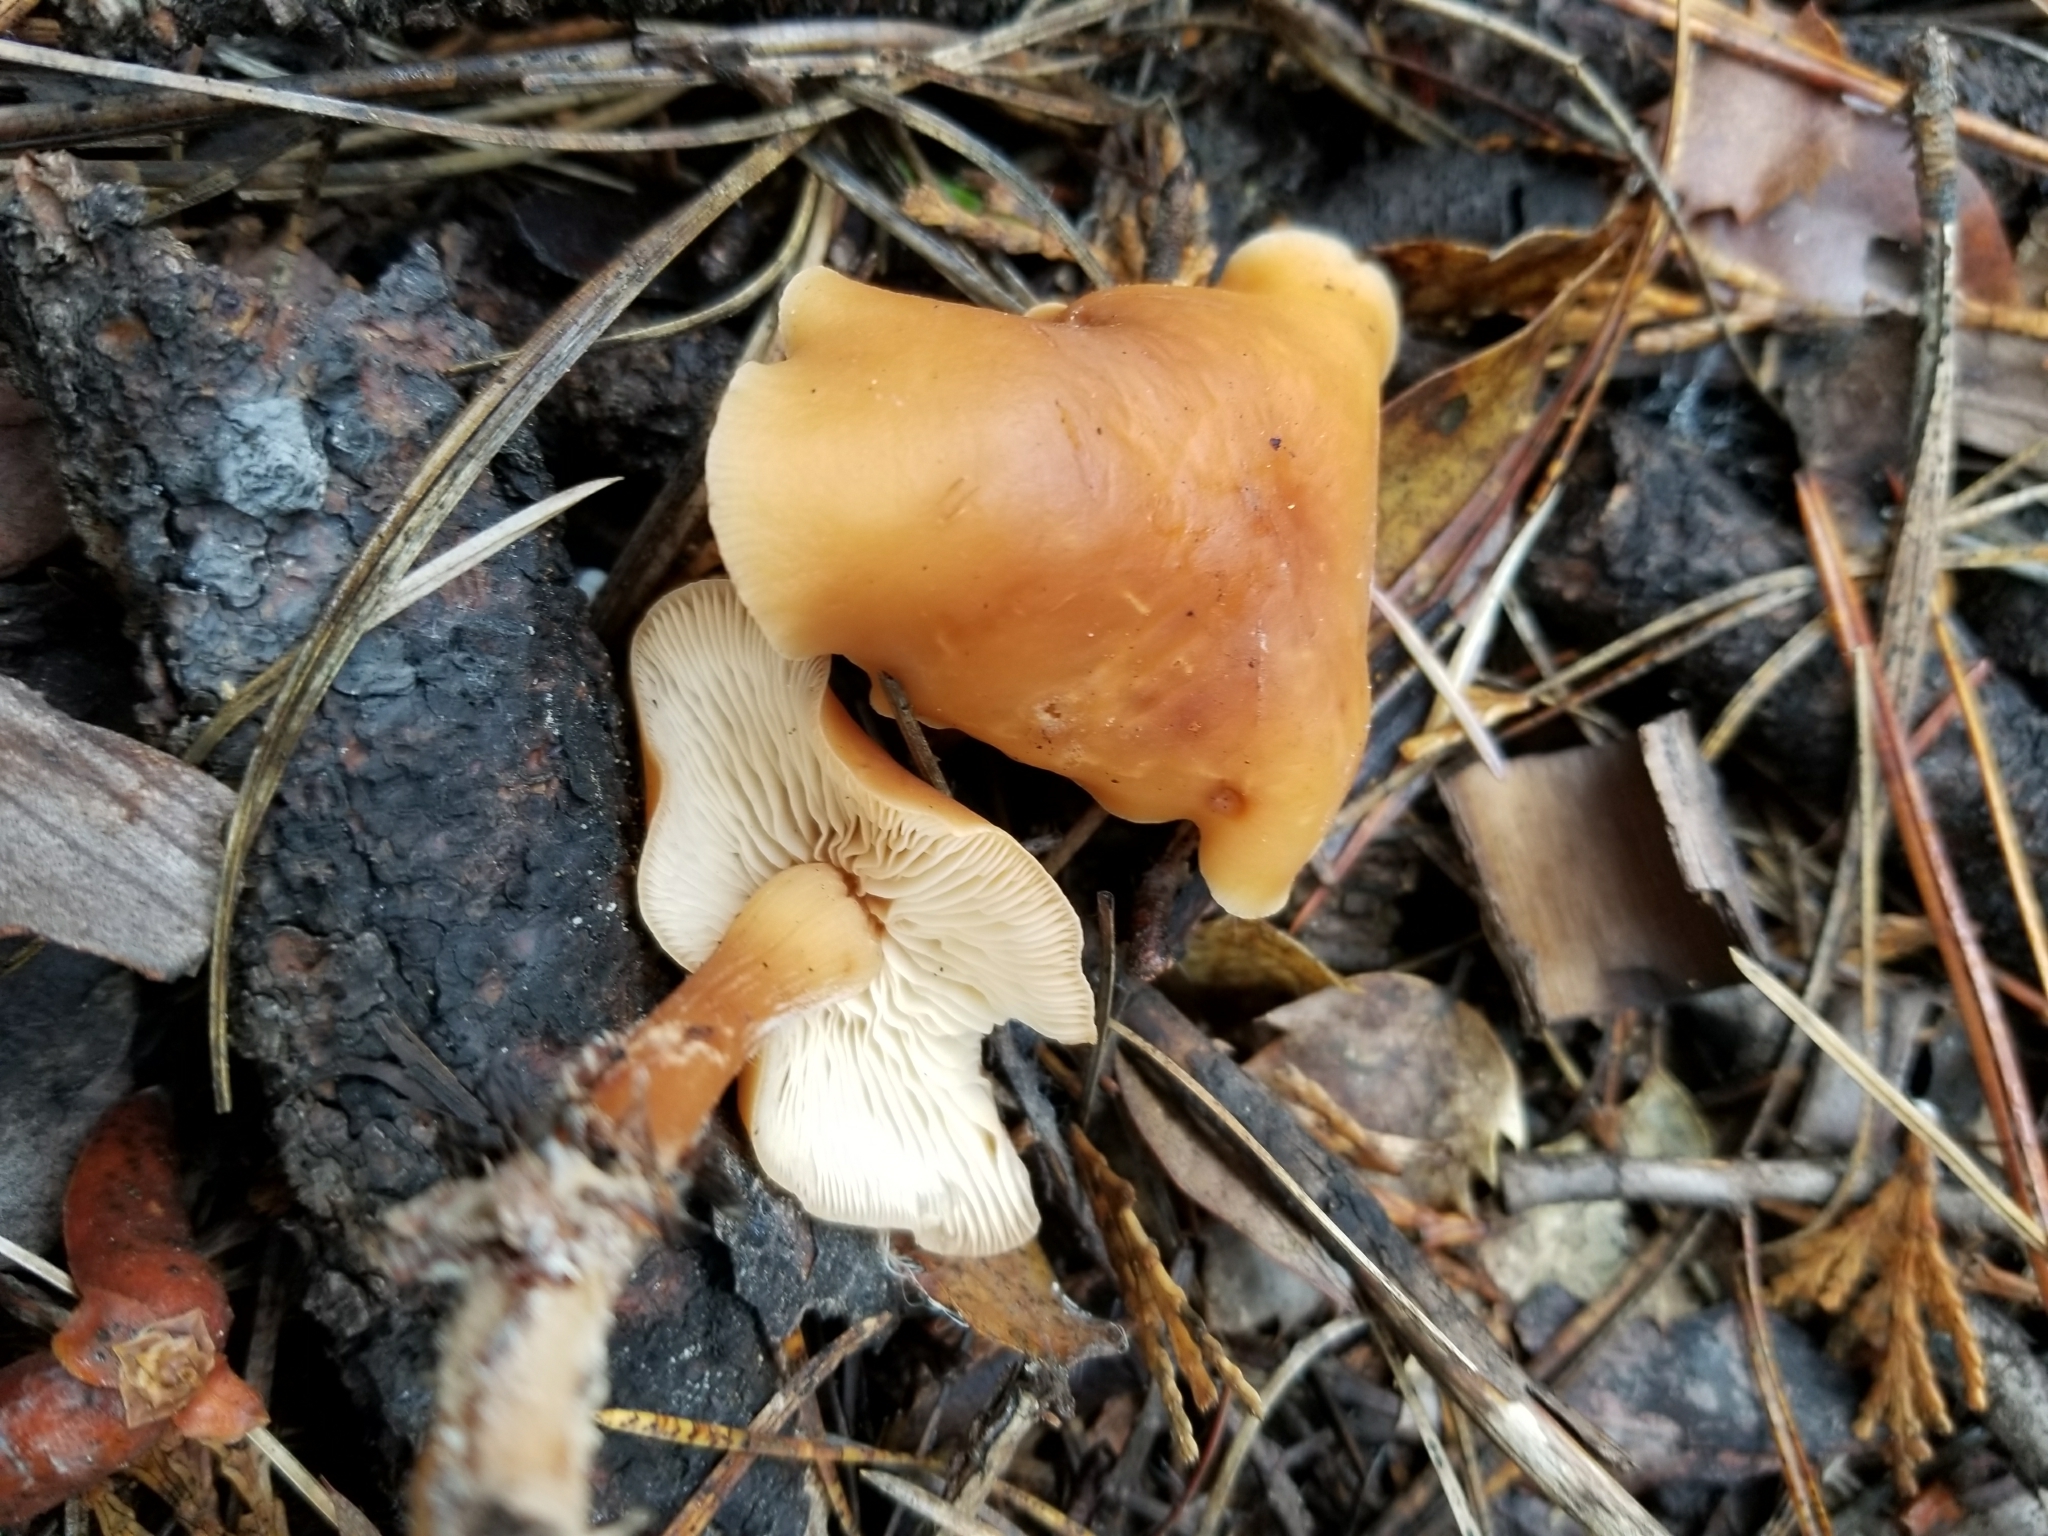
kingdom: Fungi
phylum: Basidiomycota
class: Agaricomycetes
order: Agaricales
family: Omphalotaceae
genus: Gymnopus
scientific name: Gymnopus dryophilus
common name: Penny top
